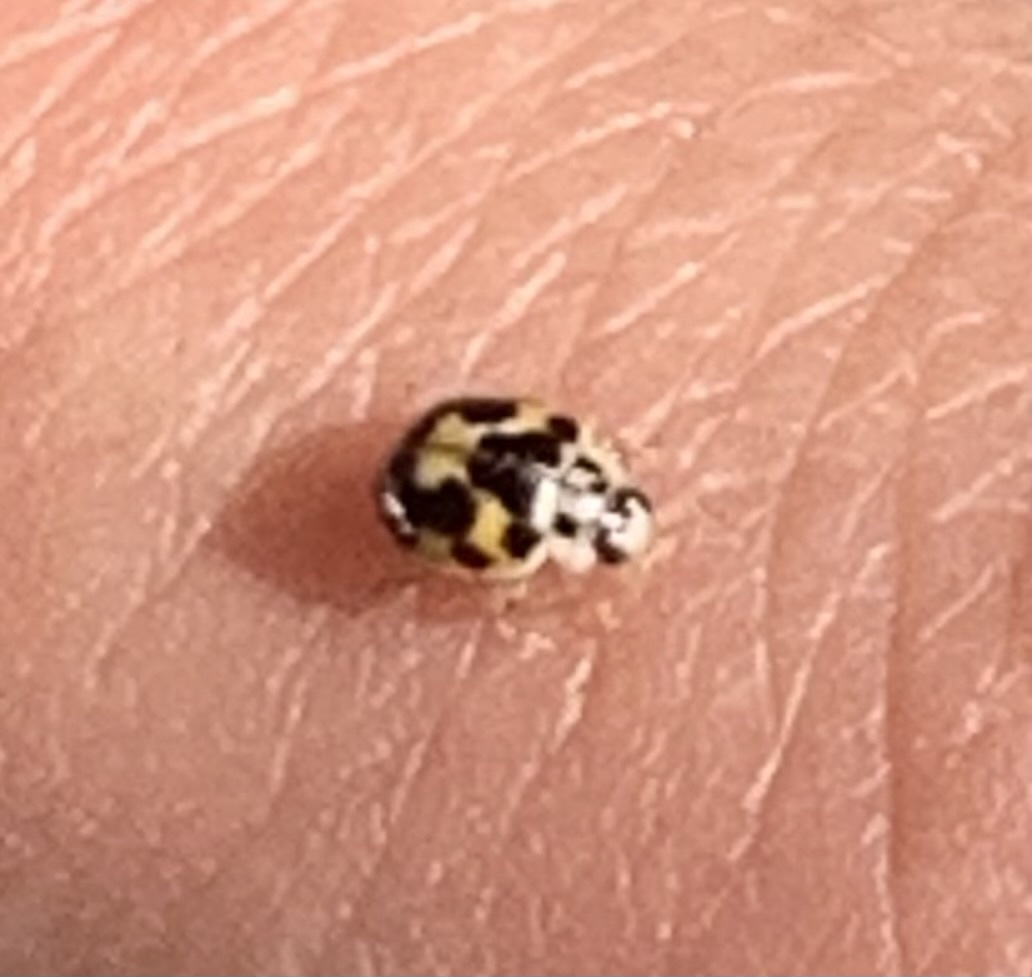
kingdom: Animalia
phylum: Arthropoda
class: Insecta
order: Coleoptera
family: Coccinellidae
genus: Psyllobora
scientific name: Psyllobora vigintimaculata
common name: Ladybird beetle
